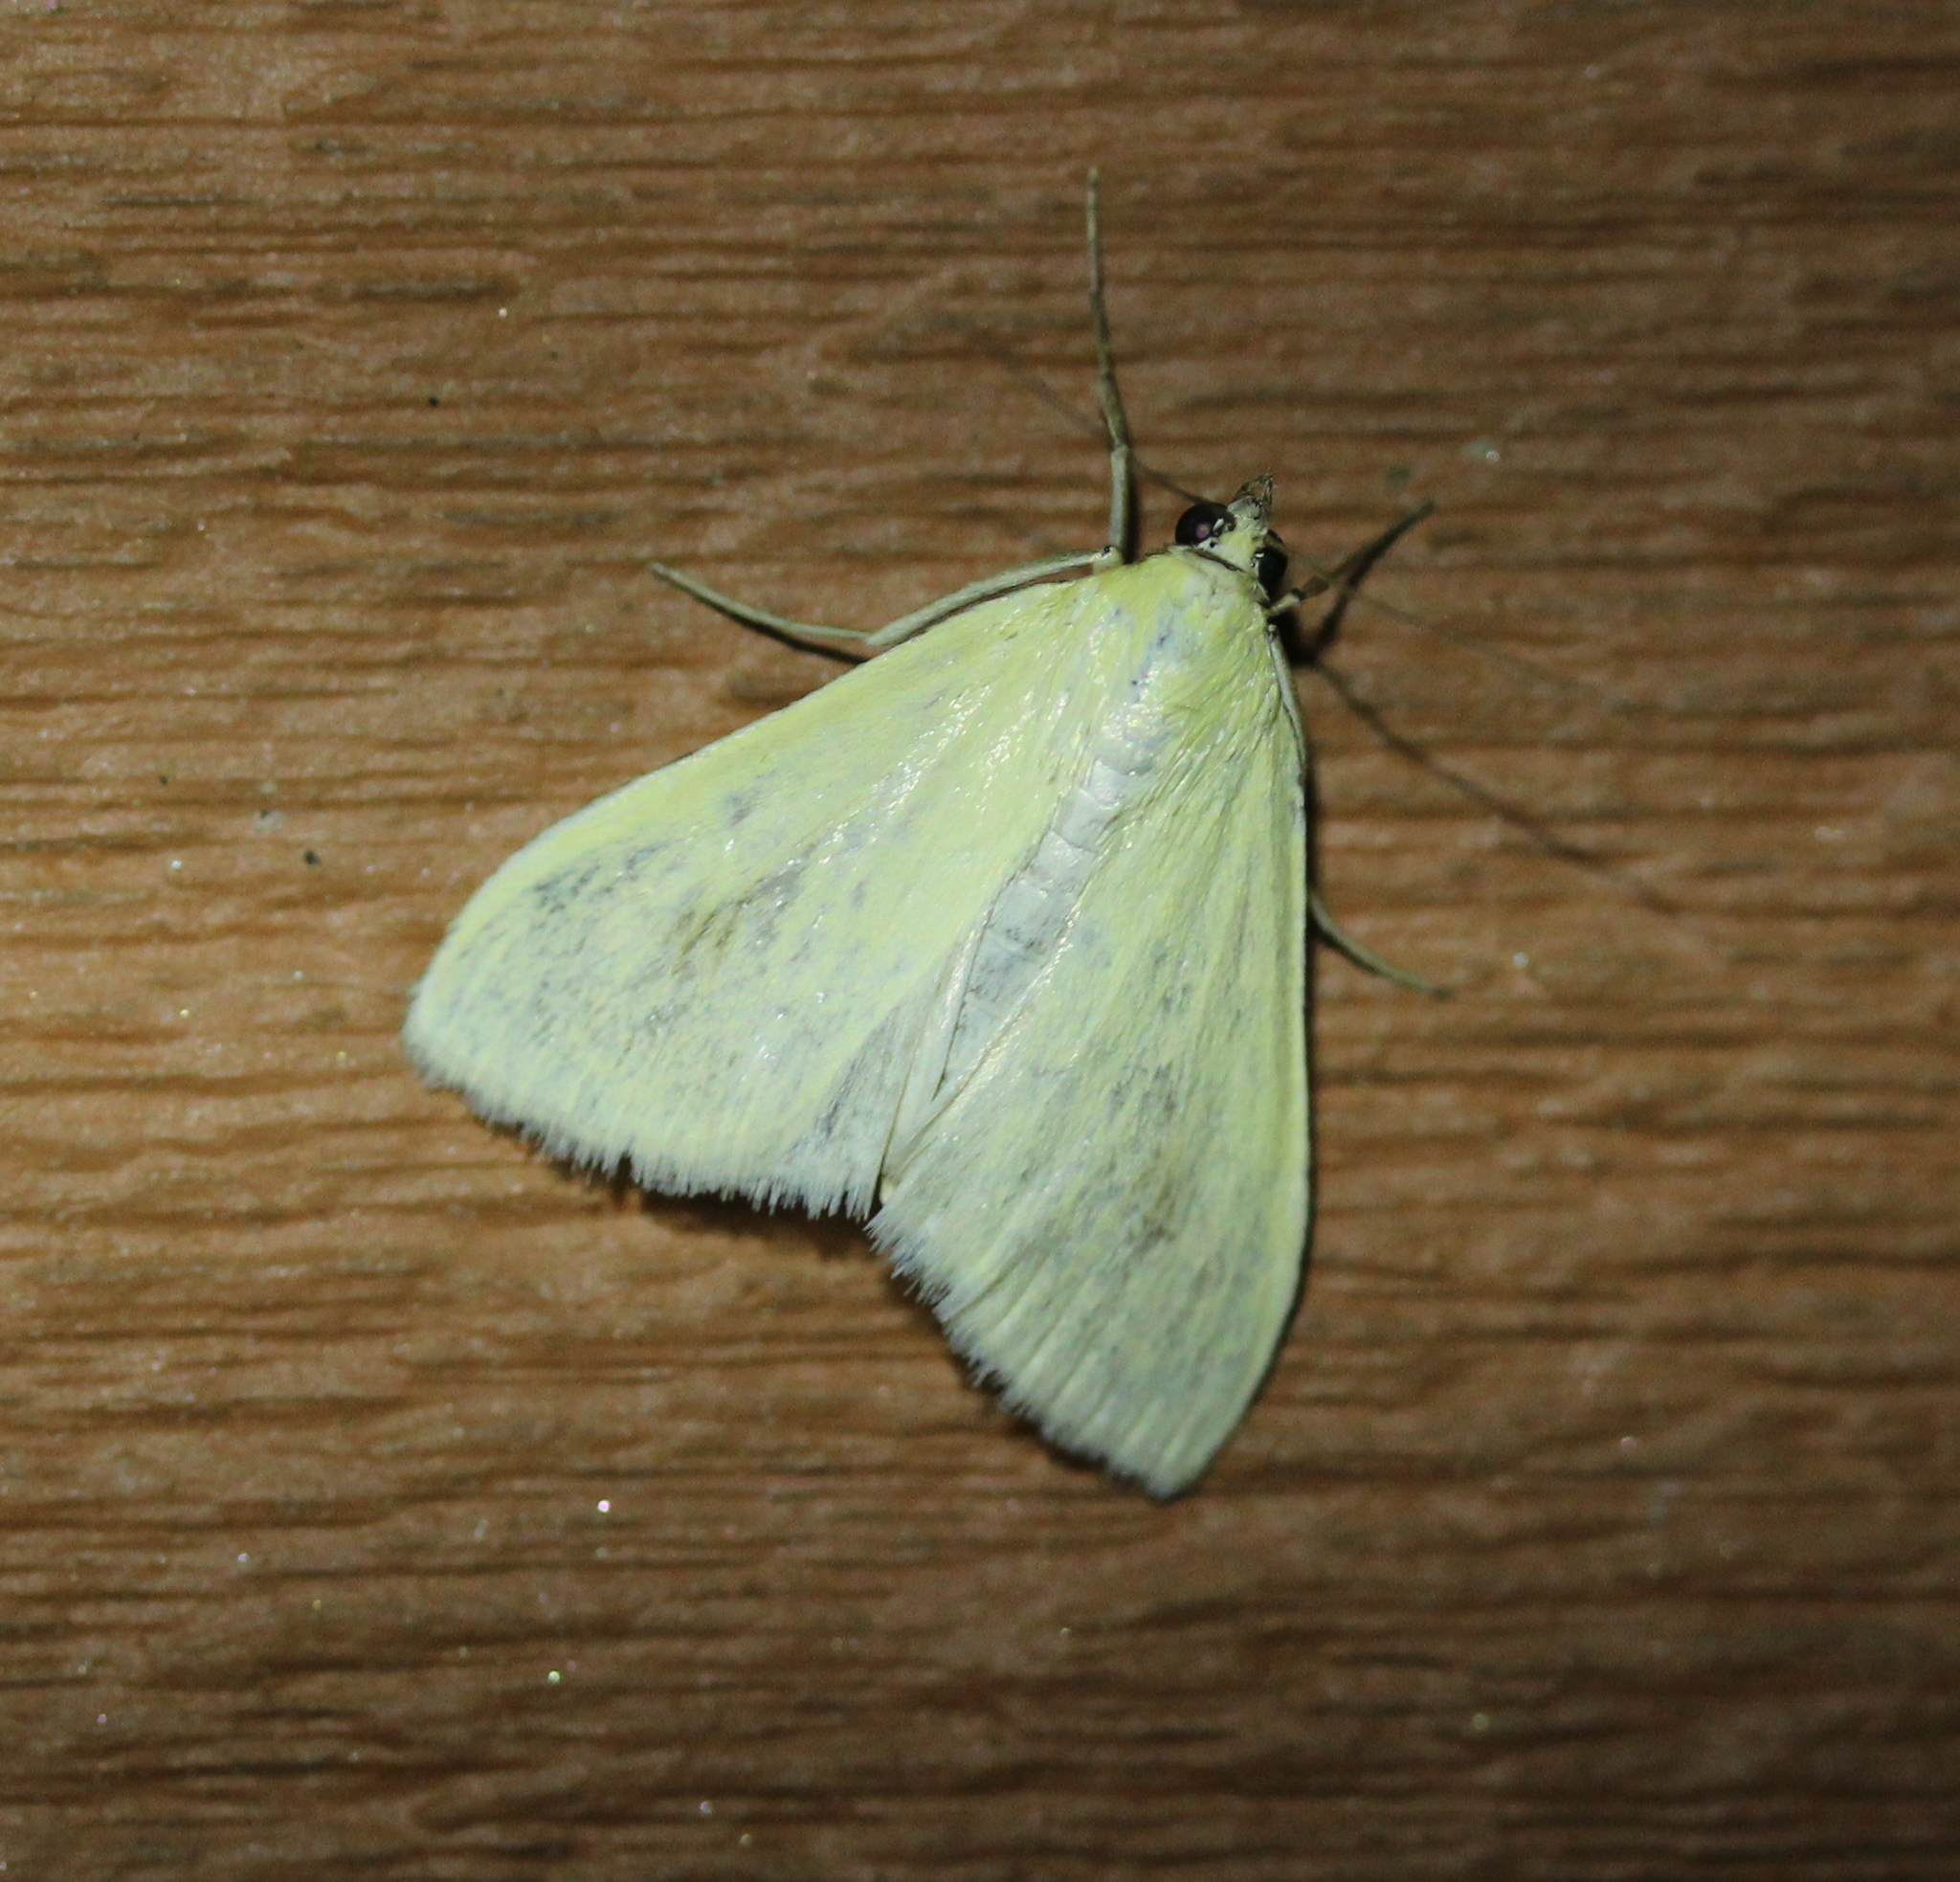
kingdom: Animalia
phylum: Arthropoda
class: Insecta
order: Lepidoptera
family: Crambidae
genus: Sitochroa
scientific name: Sitochroa palealis
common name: Greenish-yellow sitochroa moth
